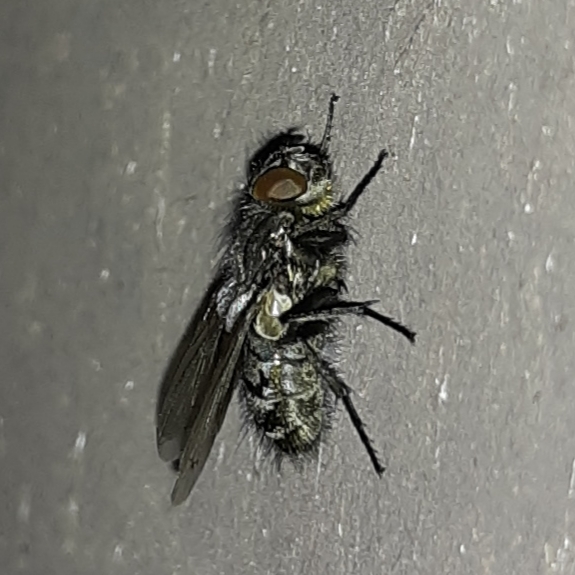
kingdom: Animalia
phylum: Arthropoda
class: Insecta
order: Diptera
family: Polleniidae
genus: Pollenia
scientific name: Pollenia
